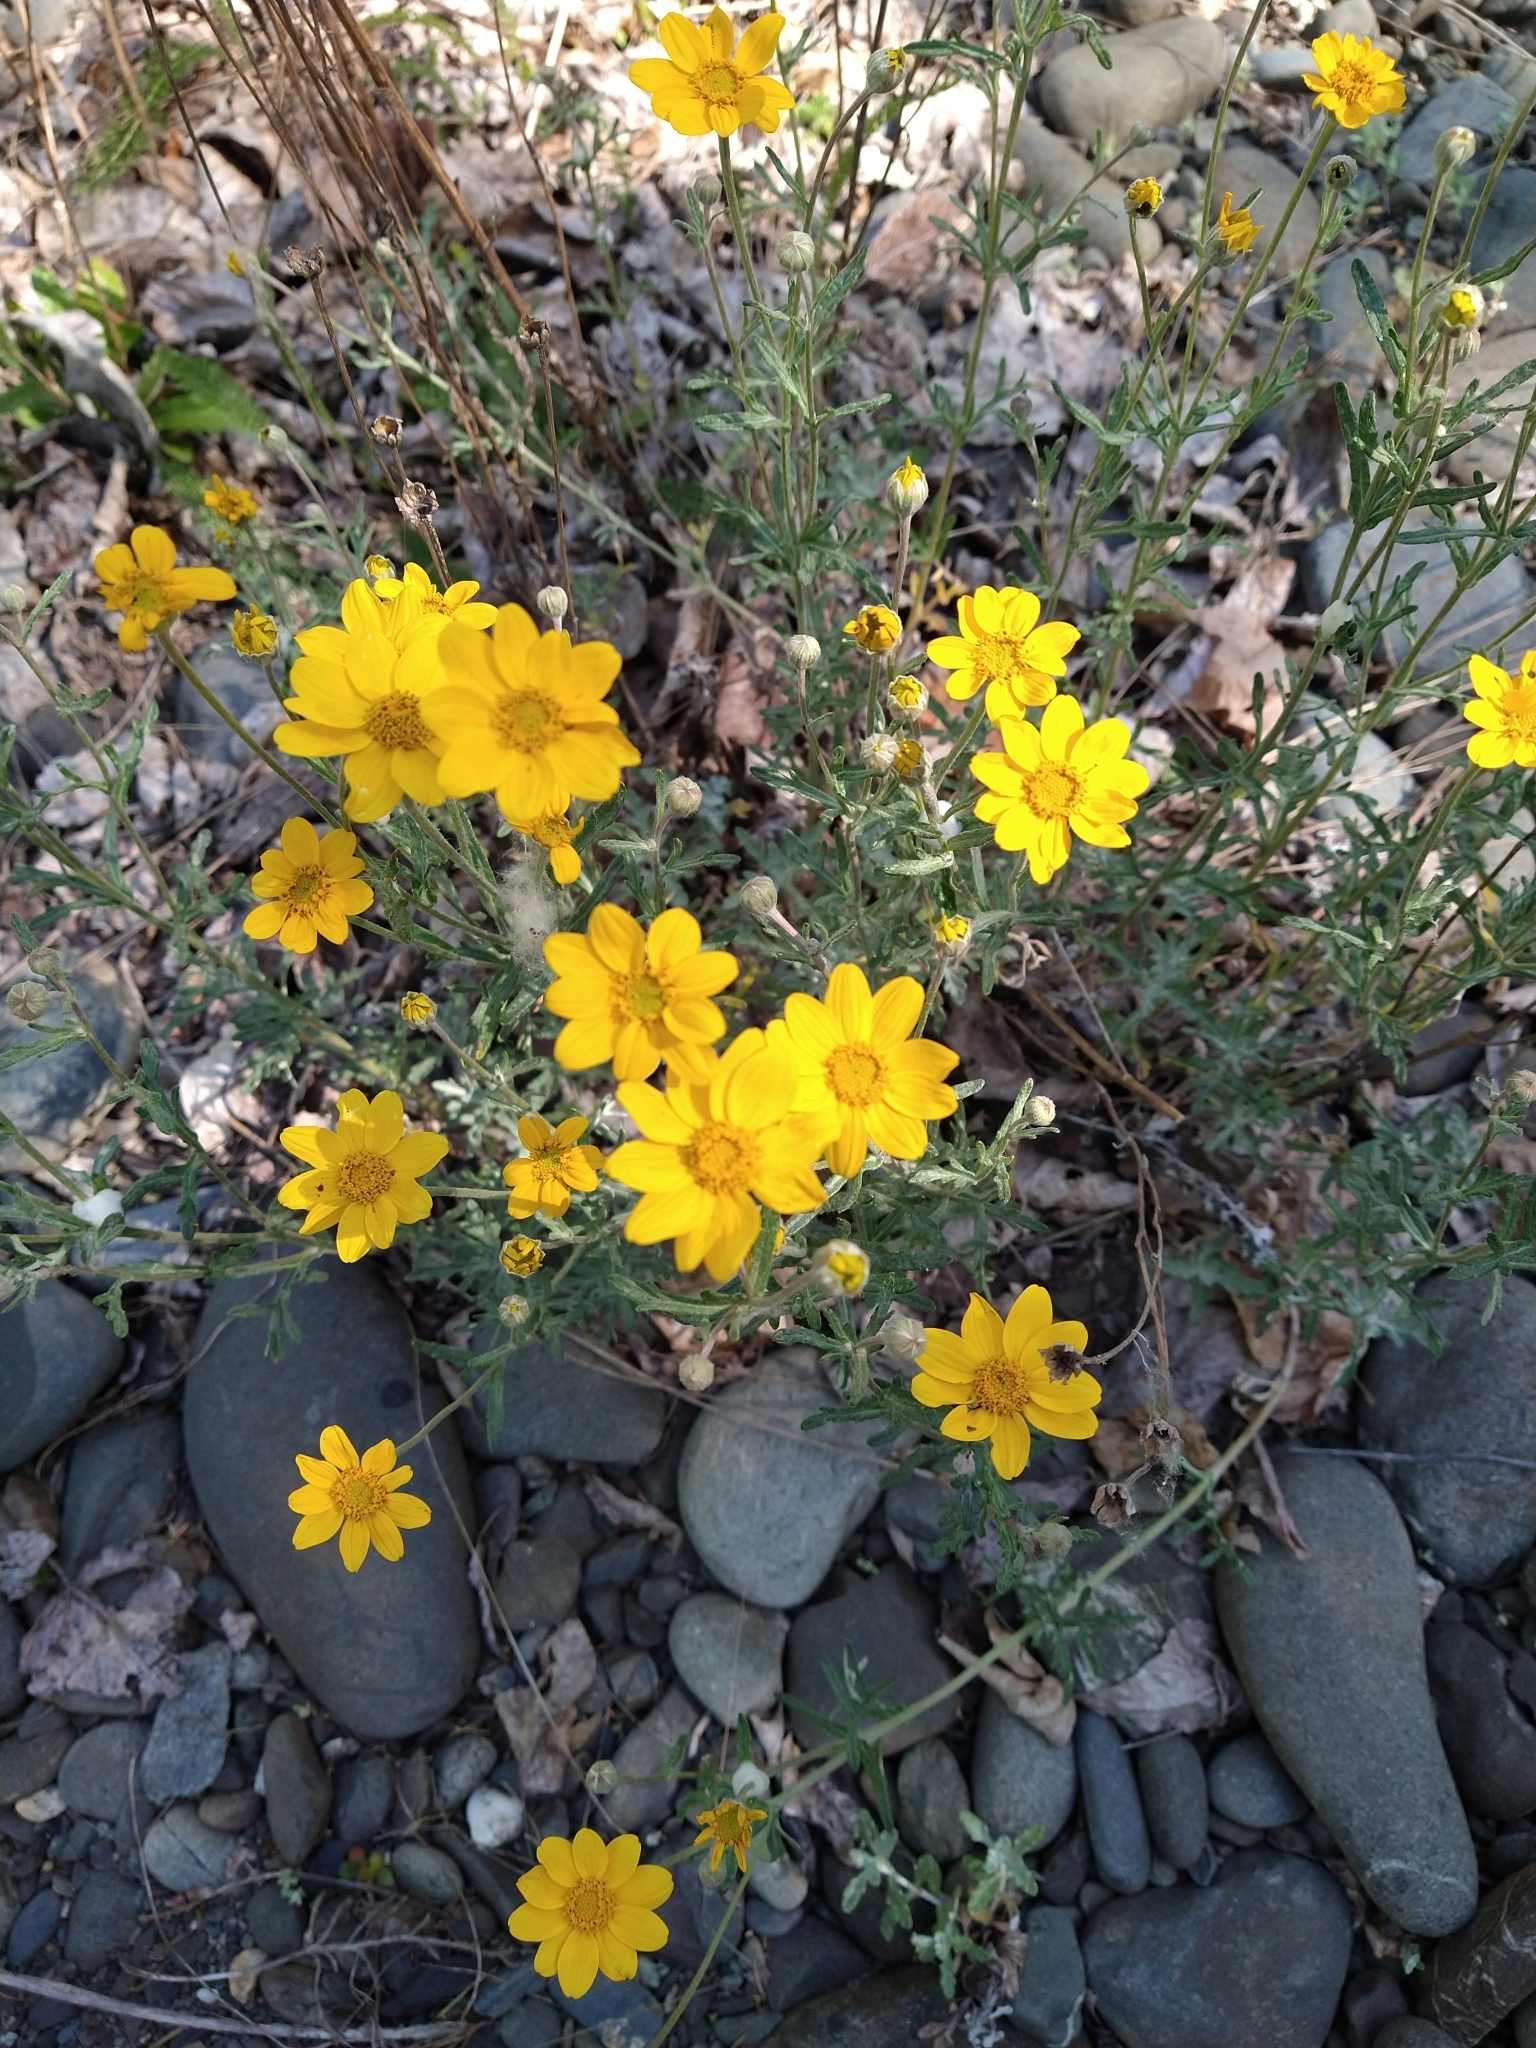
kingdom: Plantae
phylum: Tracheophyta
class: Magnoliopsida
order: Asterales
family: Asteraceae
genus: Eriophyllum
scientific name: Eriophyllum lanatum
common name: Common woolly-sunflower
